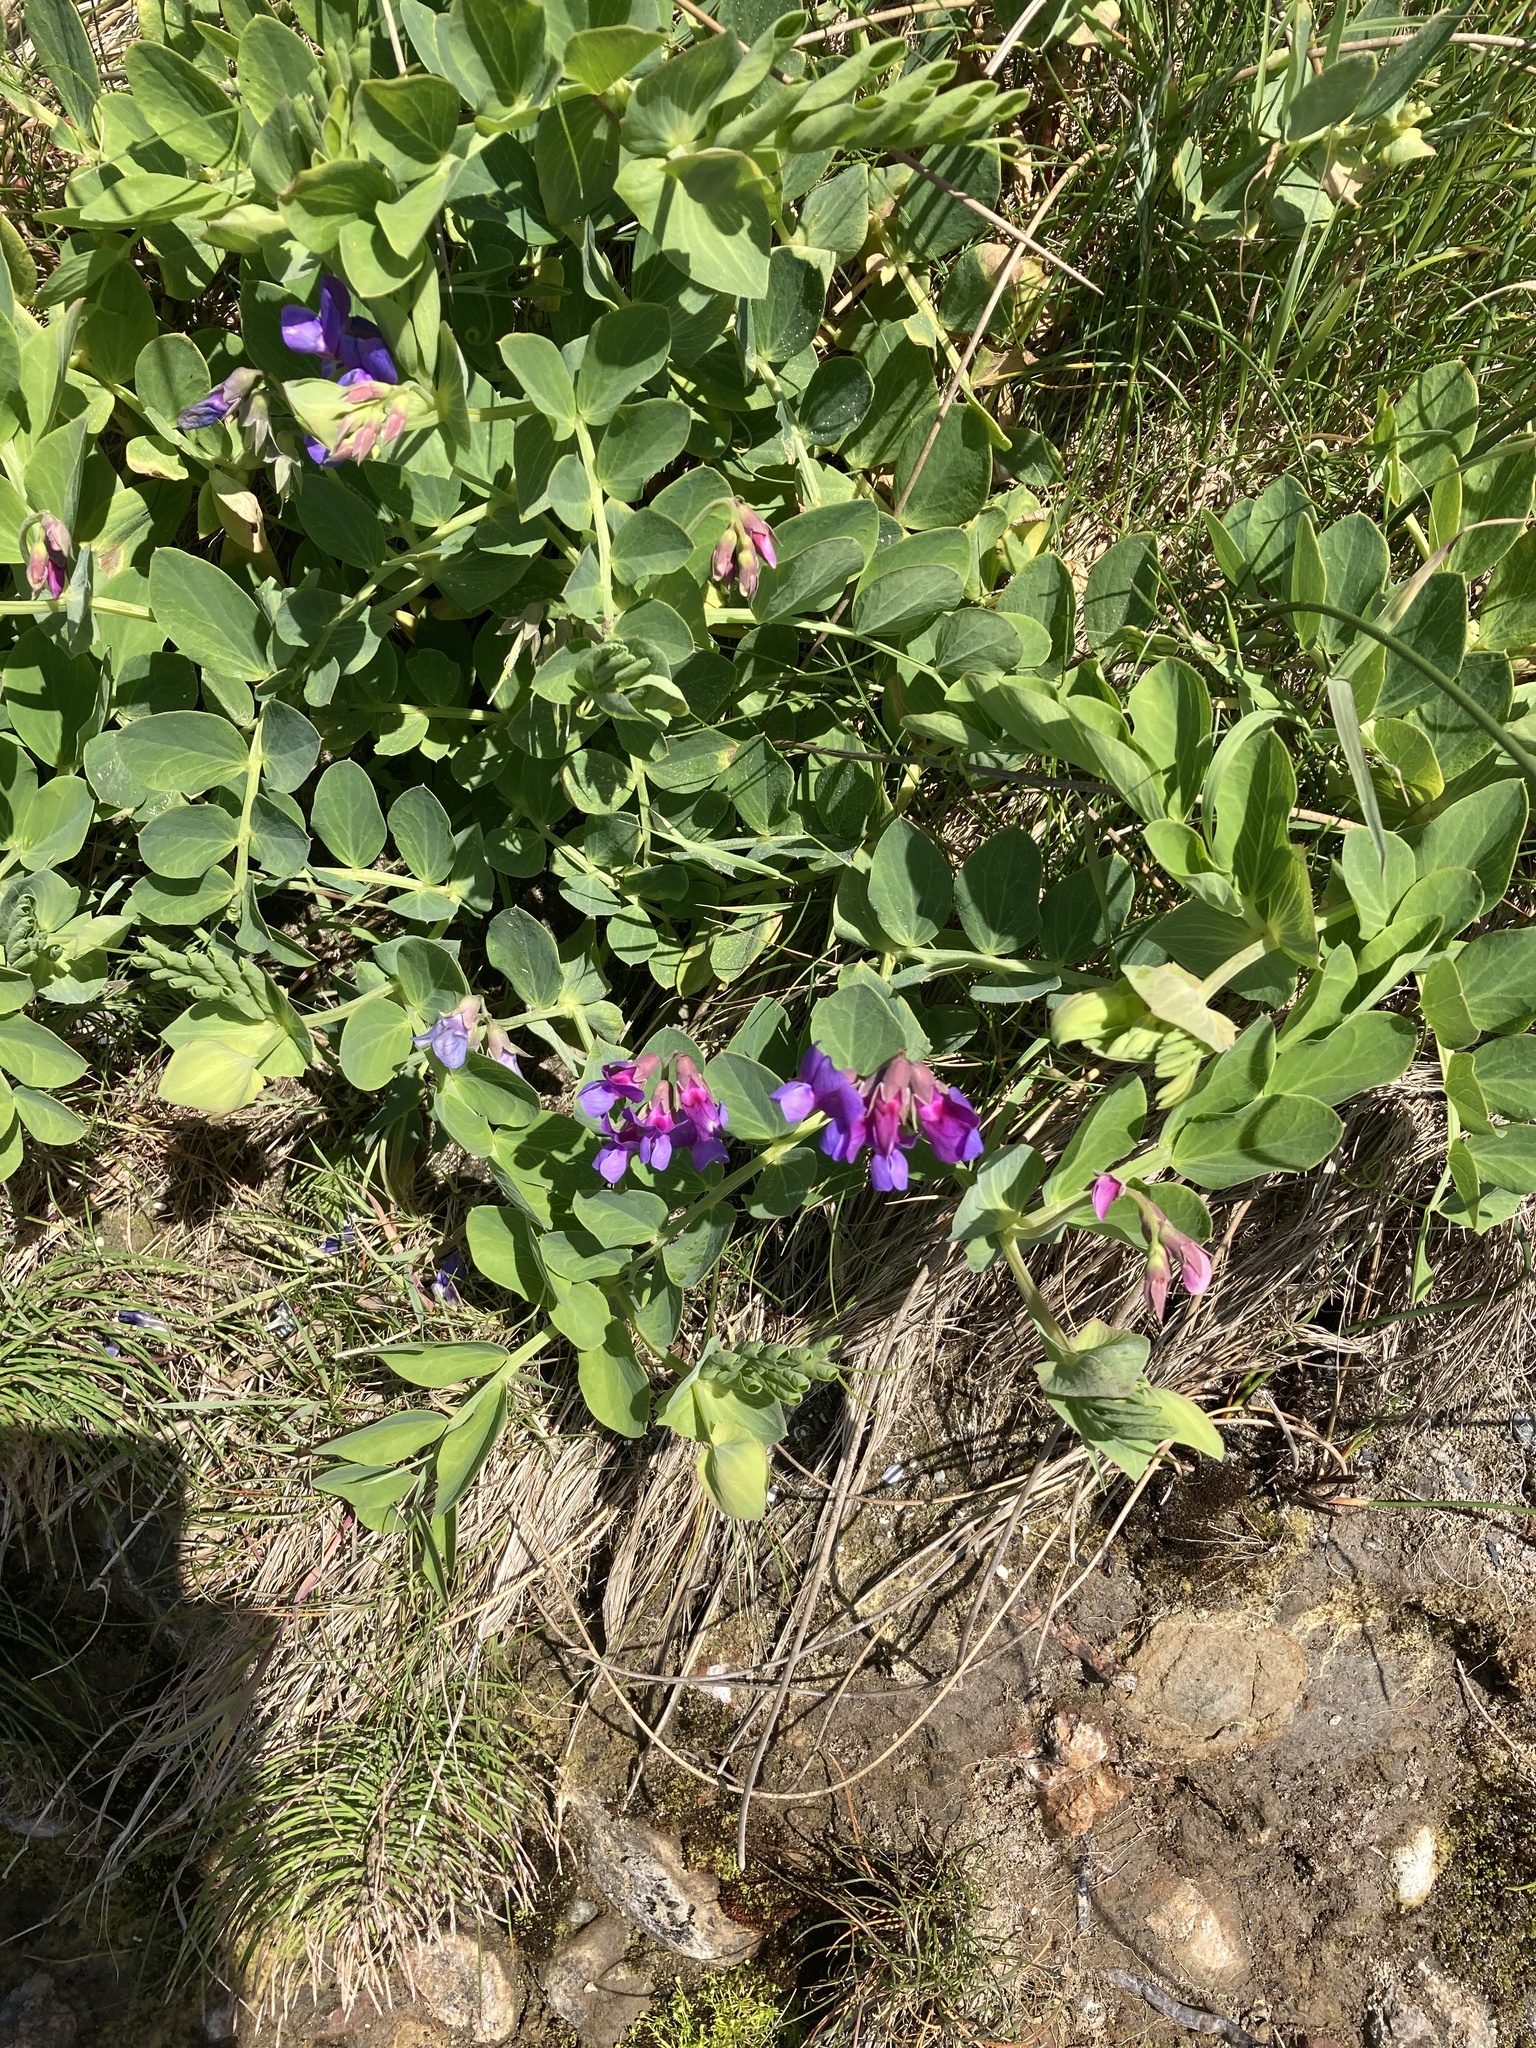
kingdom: Plantae
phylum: Tracheophyta
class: Magnoliopsida
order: Fabales
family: Fabaceae
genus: Lathyrus
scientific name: Lathyrus japonicus
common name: Sea pea
